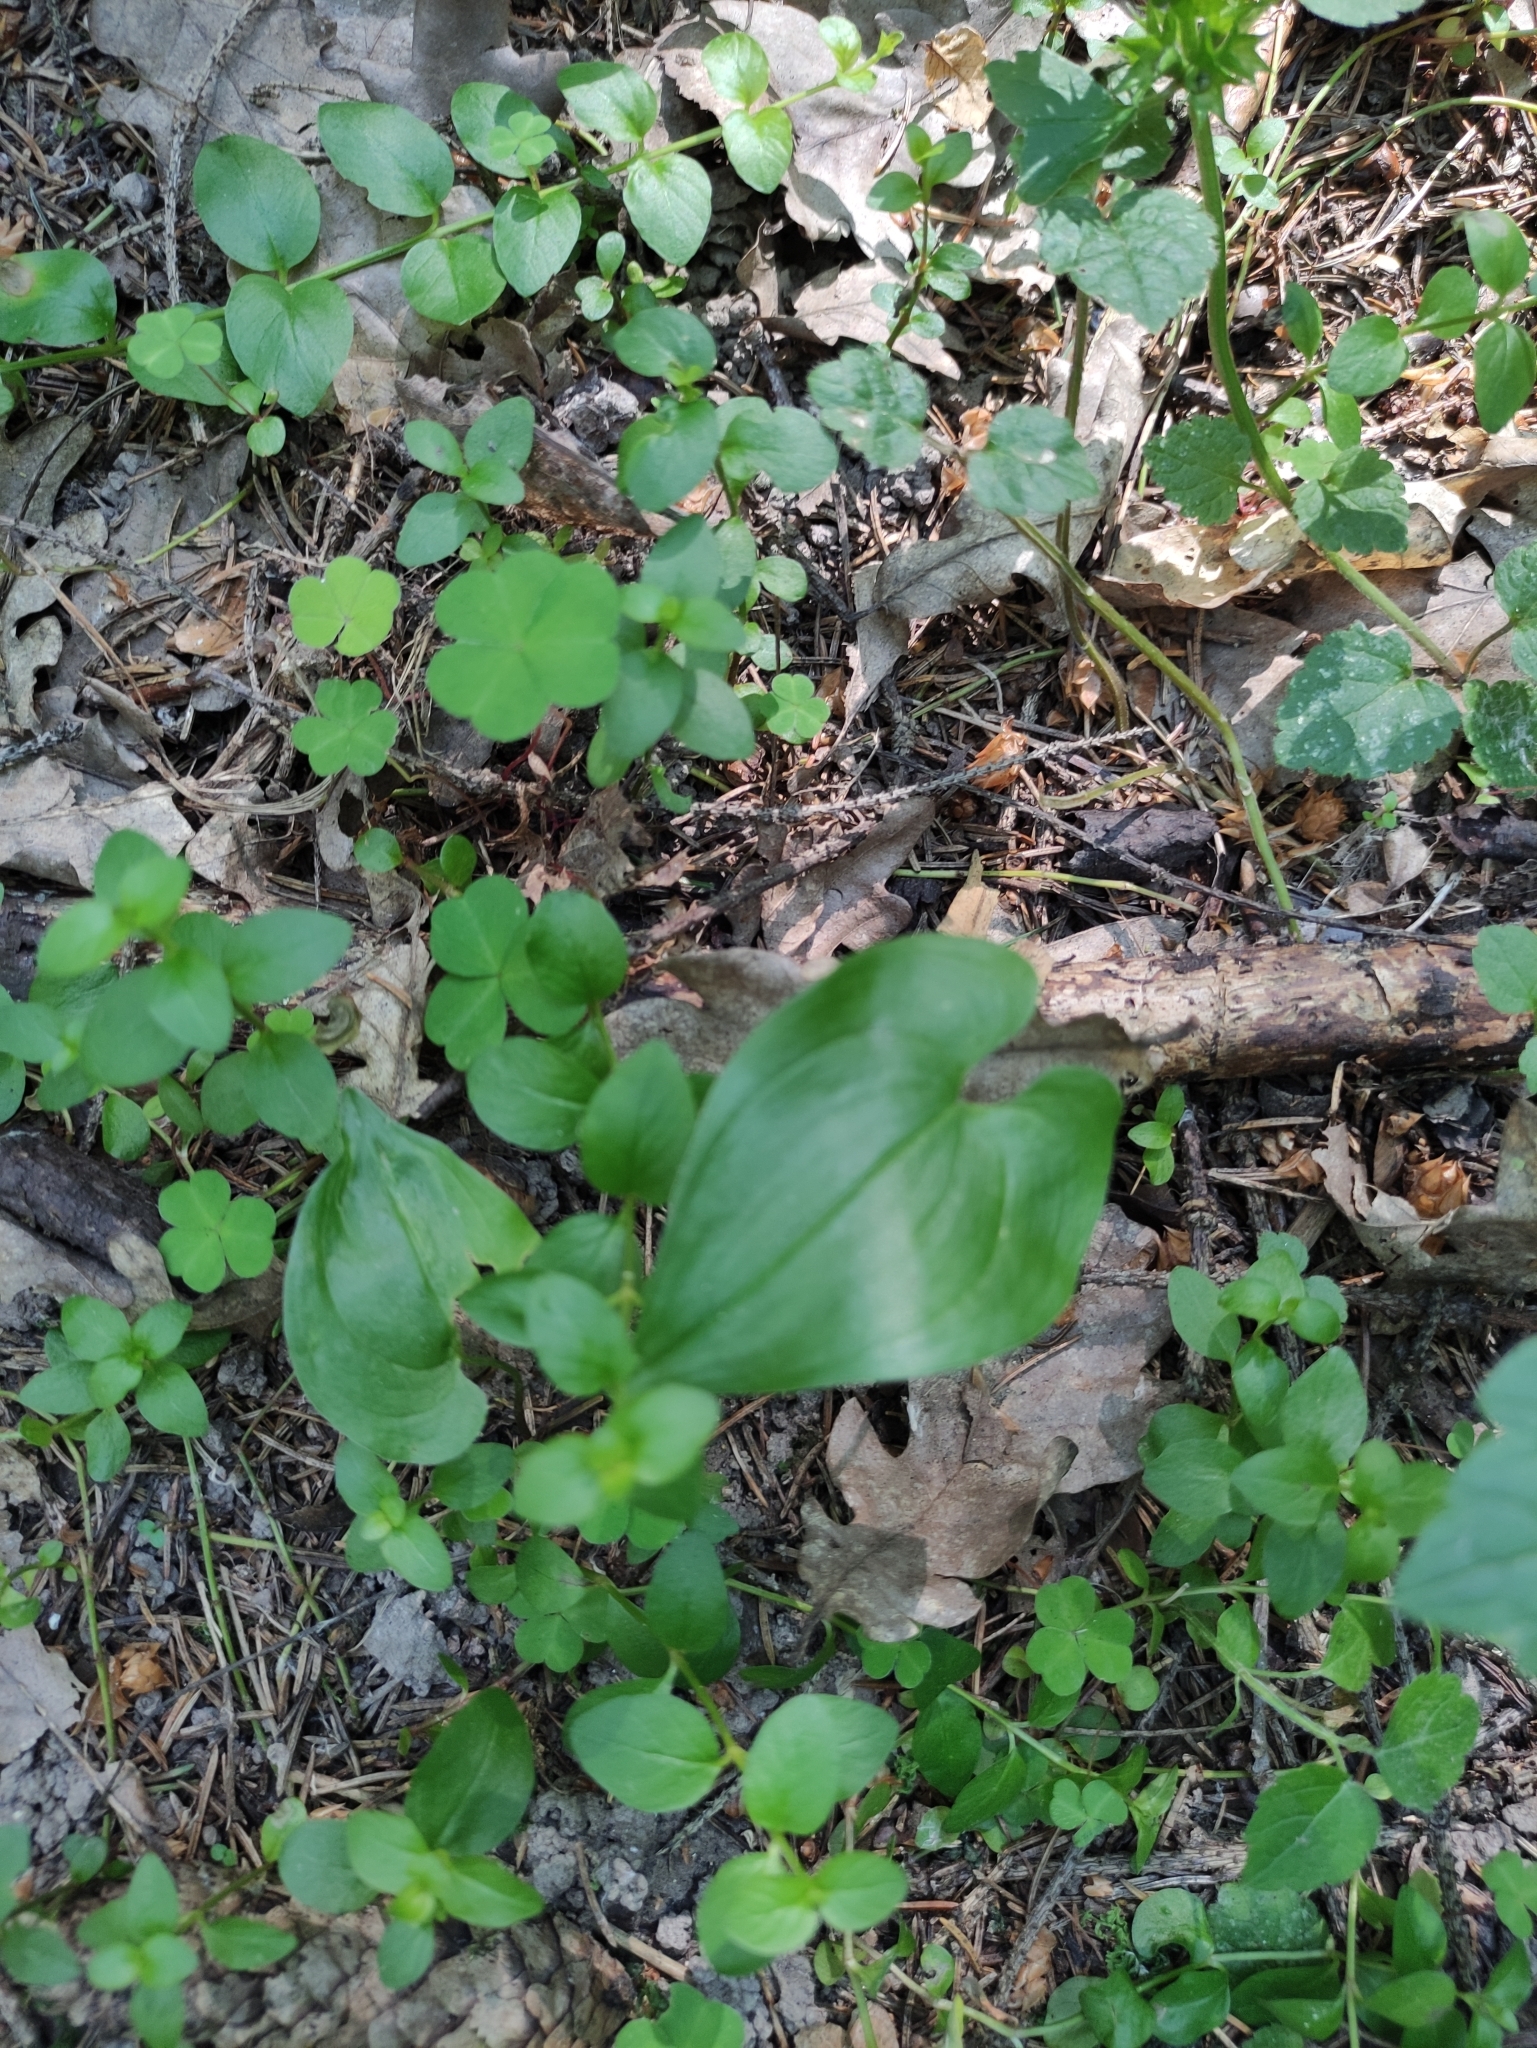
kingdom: Plantae
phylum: Tracheophyta
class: Liliopsida
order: Asparagales
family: Asparagaceae
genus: Maianthemum
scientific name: Maianthemum bifolium
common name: May lily
